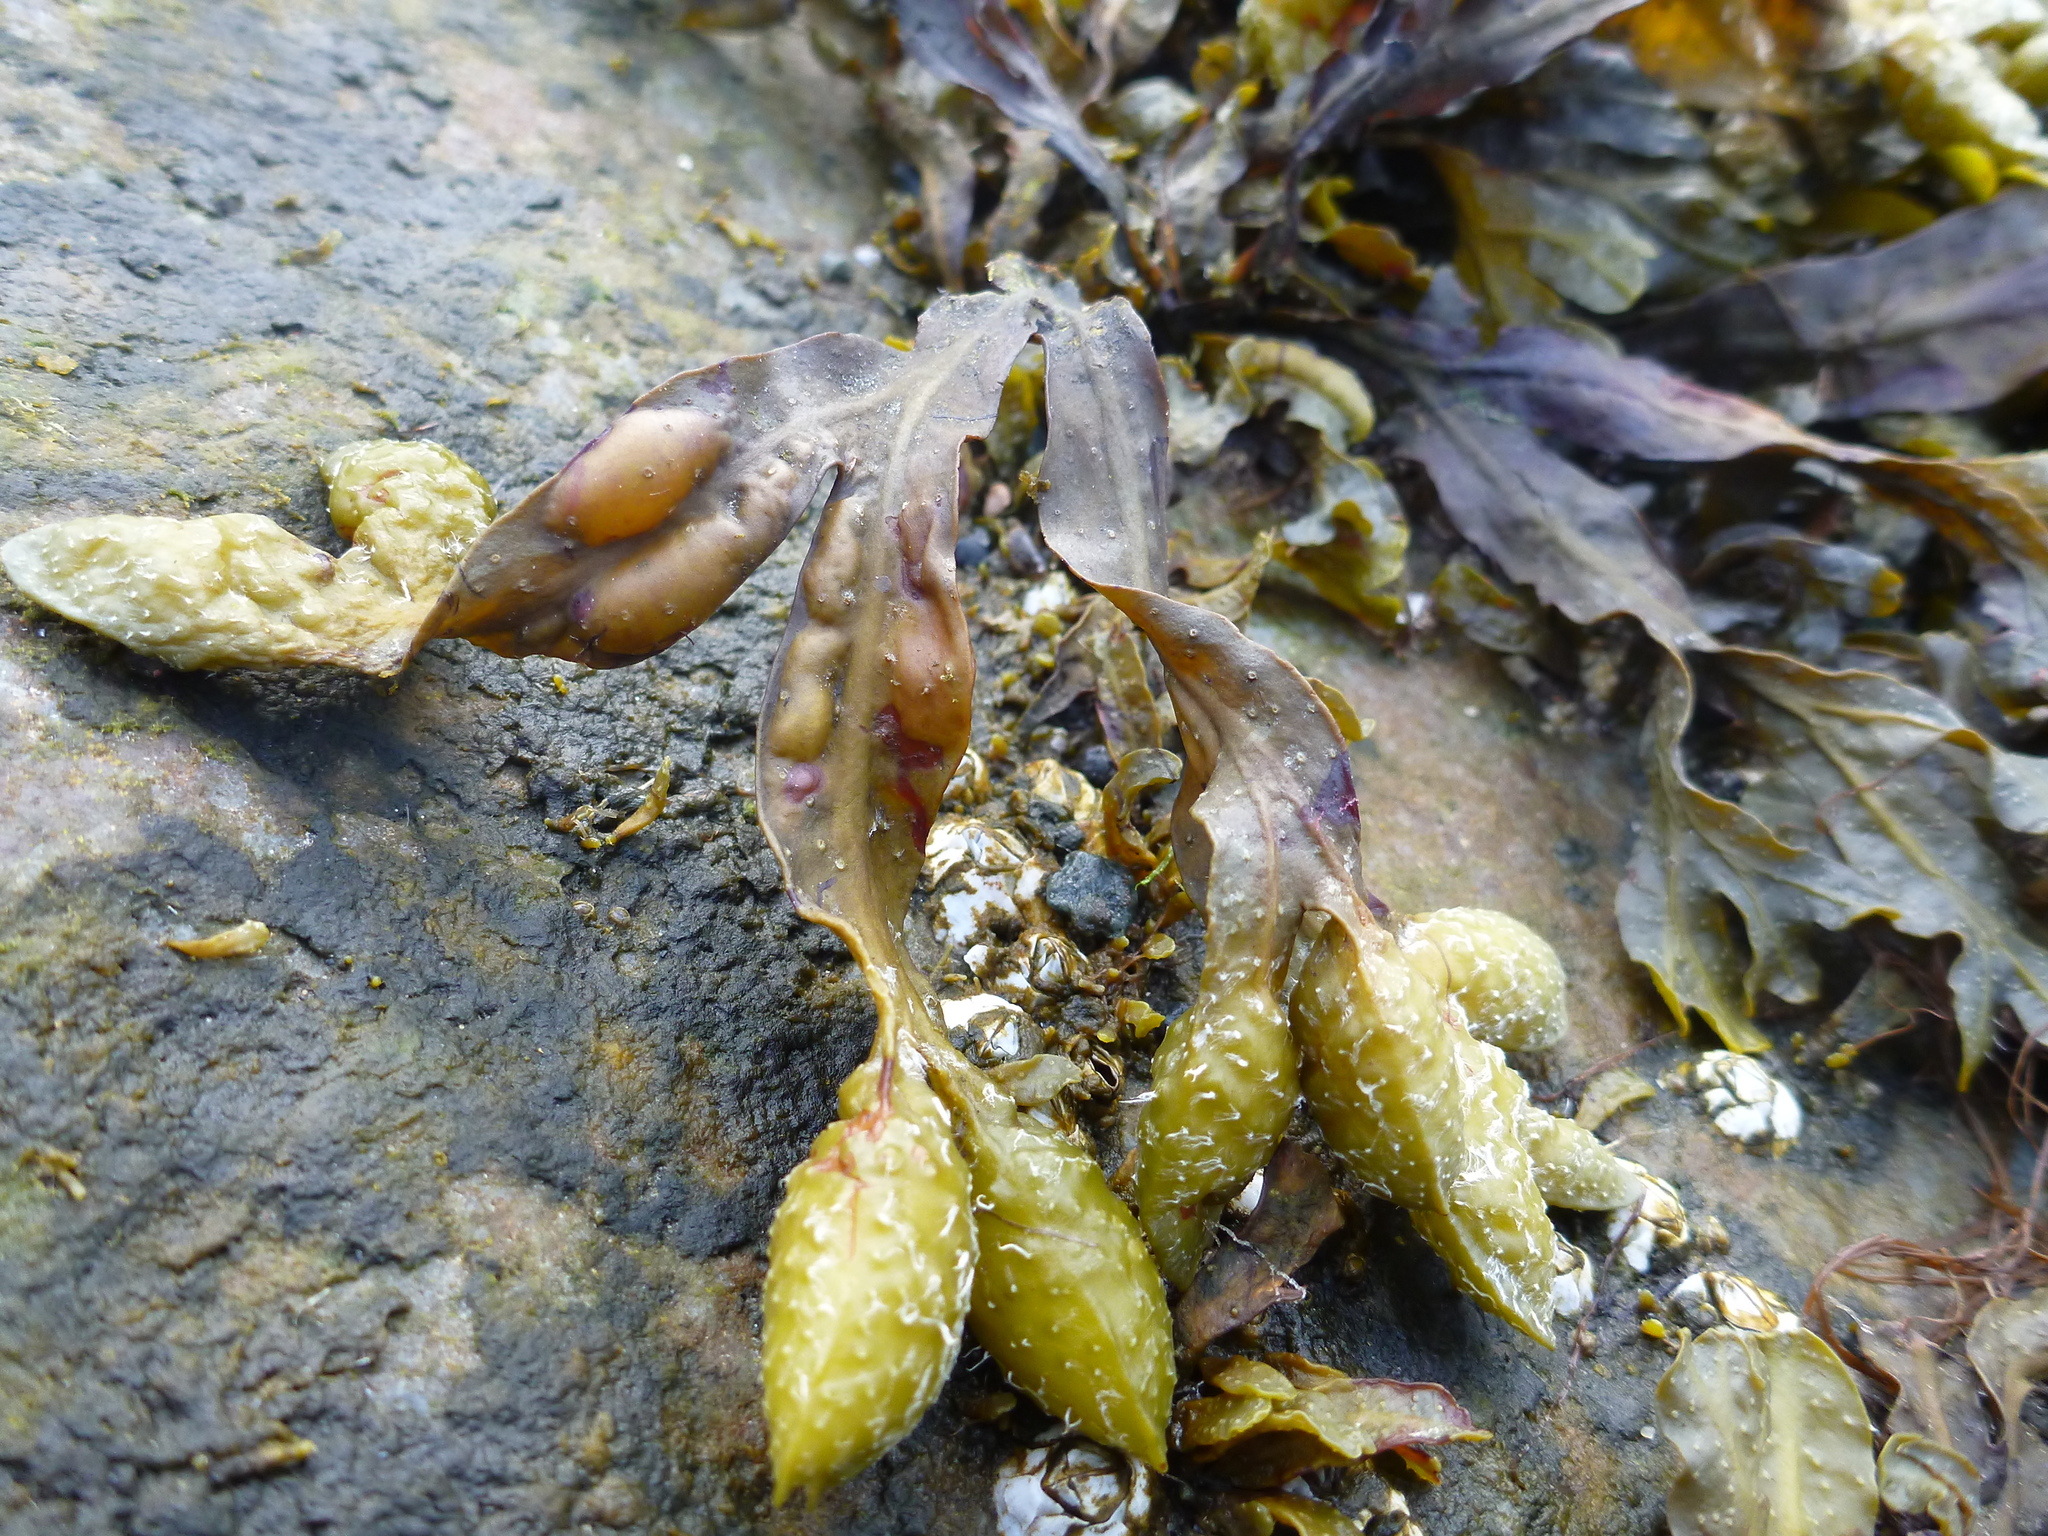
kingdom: Chromista
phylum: Ochrophyta
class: Phaeophyceae
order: Fucales
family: Fucaceae
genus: Fucus
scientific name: Fucus vesiculosus
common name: Bladder wrack
